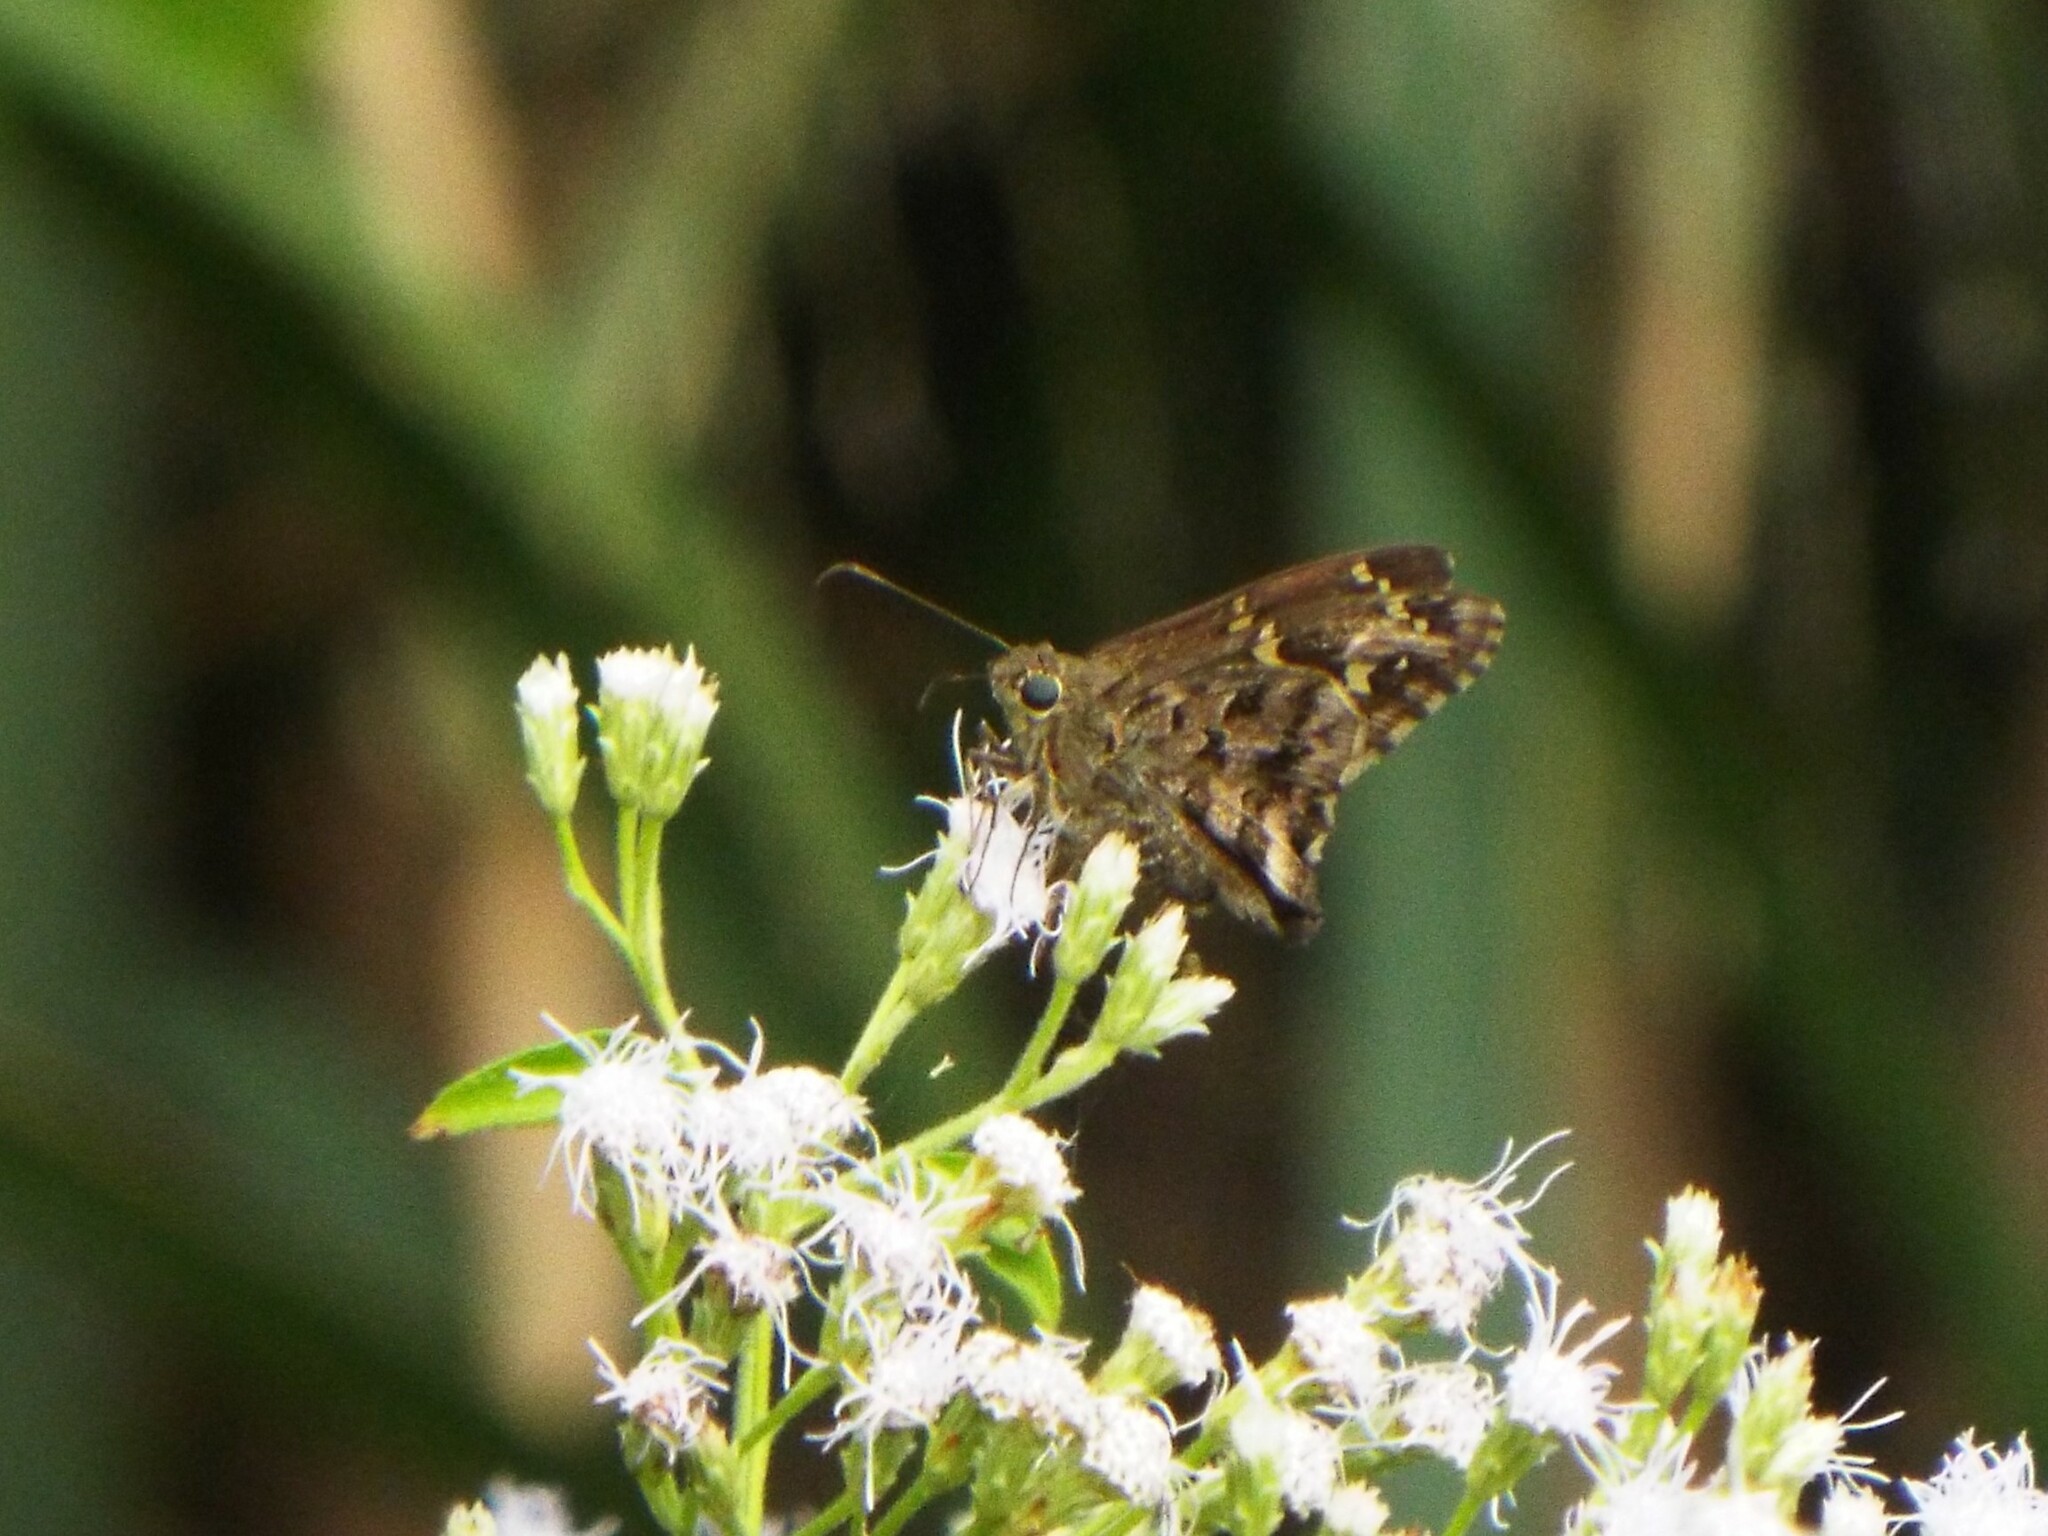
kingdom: Animalia
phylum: Arthropoda
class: Insecta
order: Lepidoptera
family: Hesperiidae
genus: Thorybes
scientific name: Thorybes
